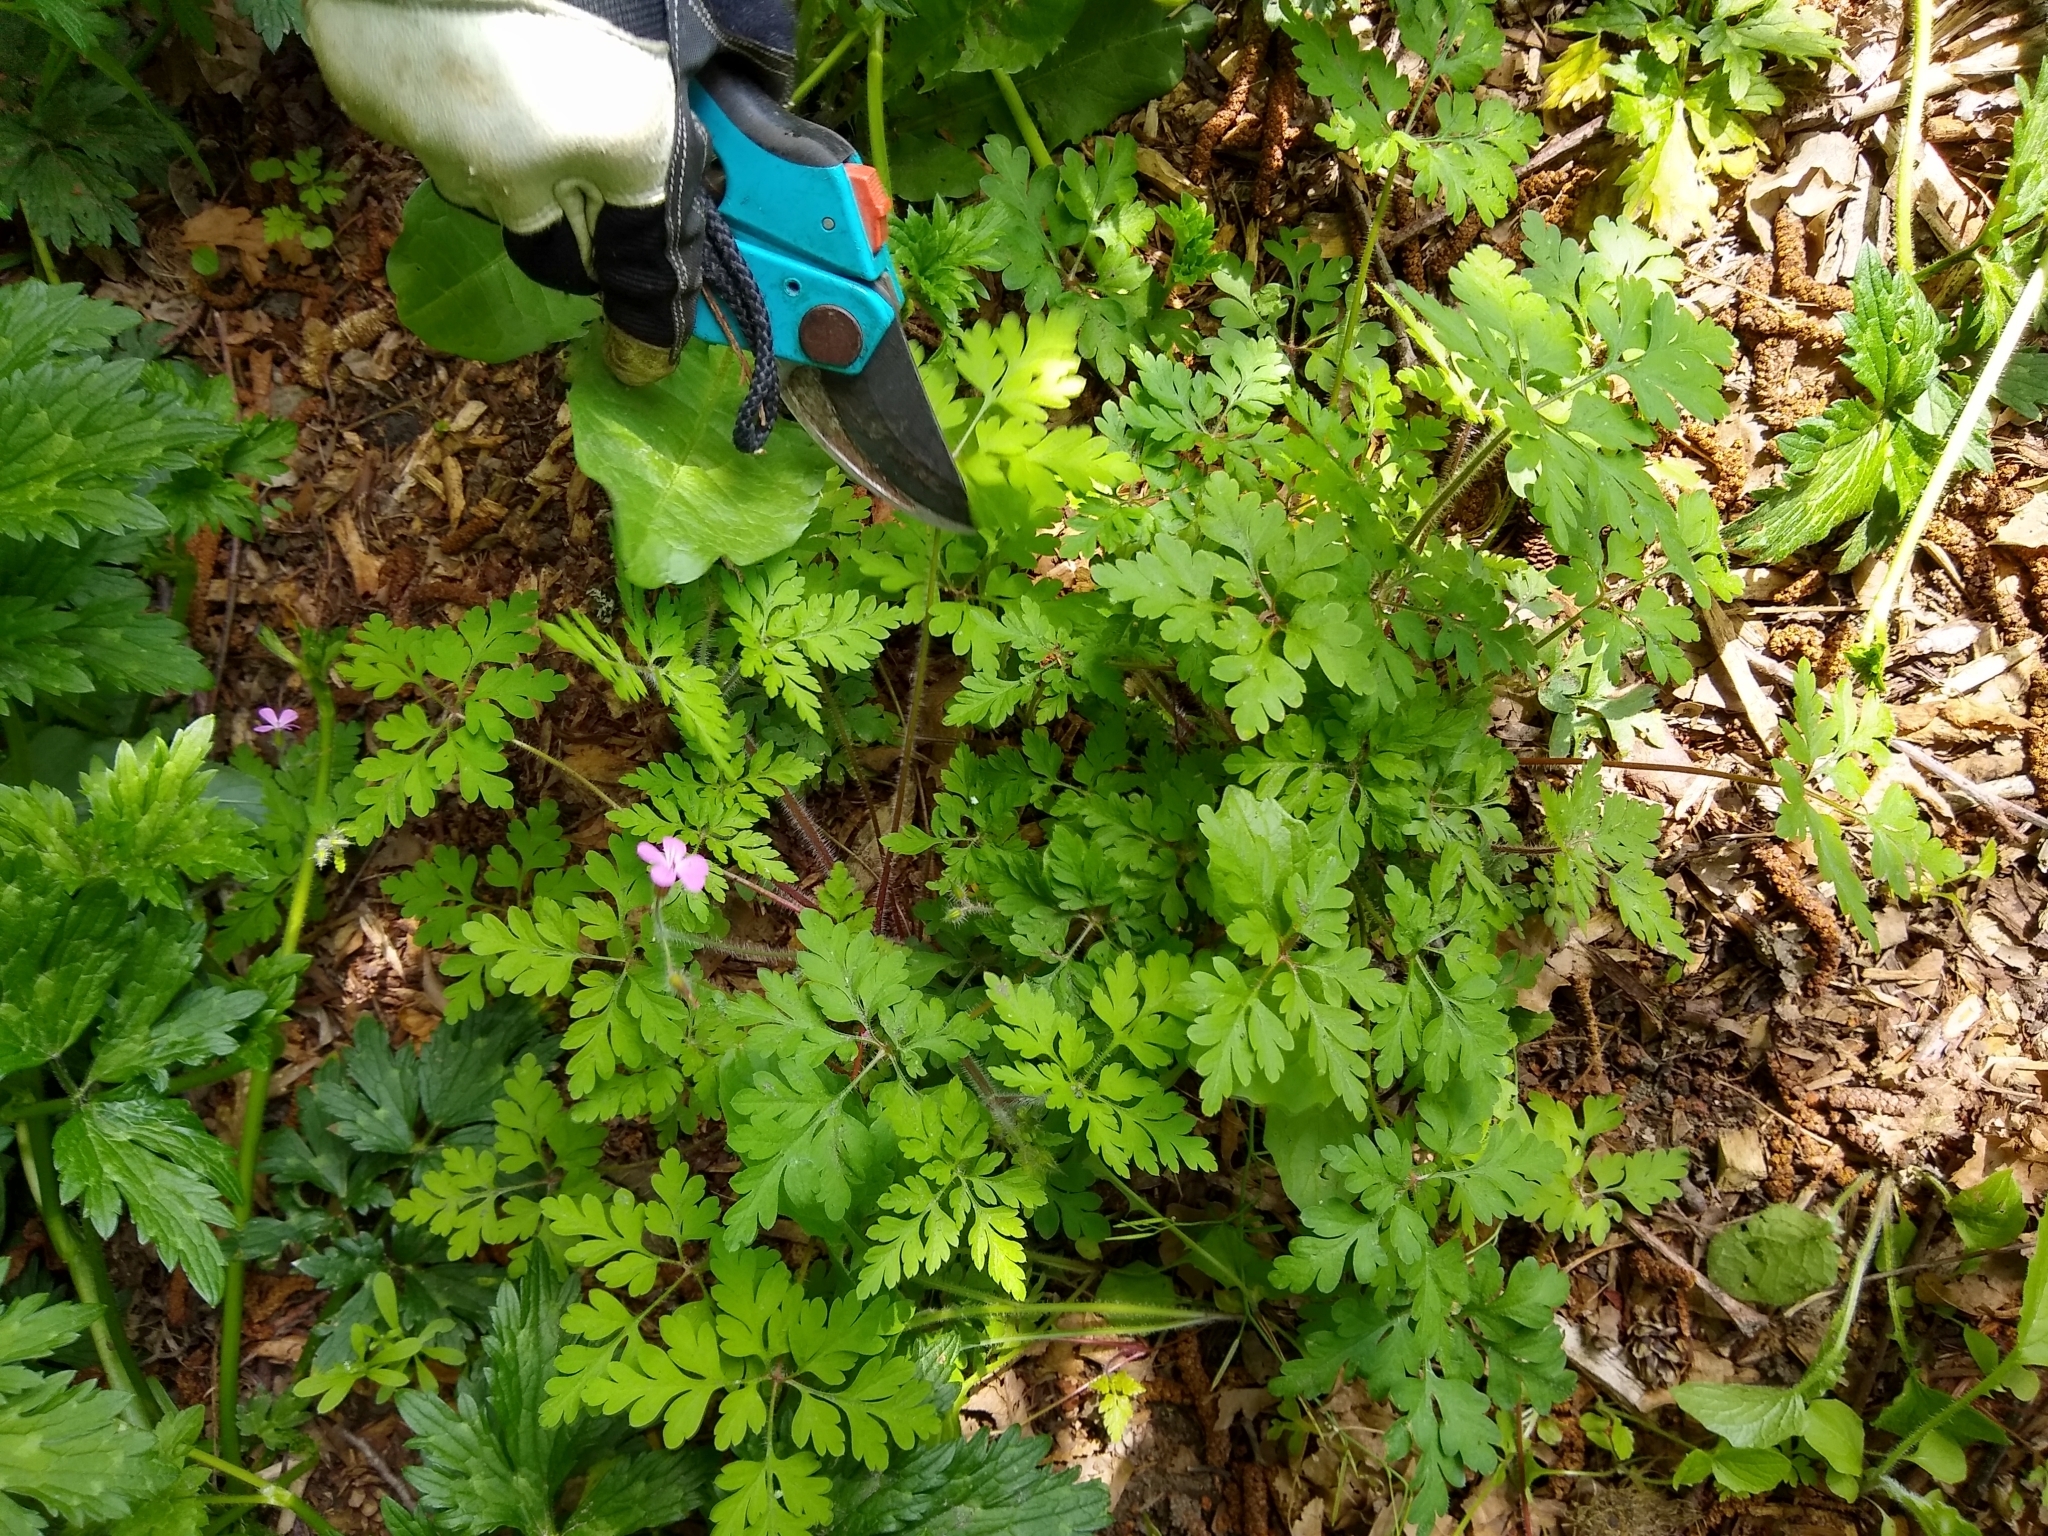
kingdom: Plantae
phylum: Tracheophyta
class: Magnoliopsida
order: Geraniales
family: Geraniaceae
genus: Geranium
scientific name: Geranium robertianum
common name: Herb-robert
